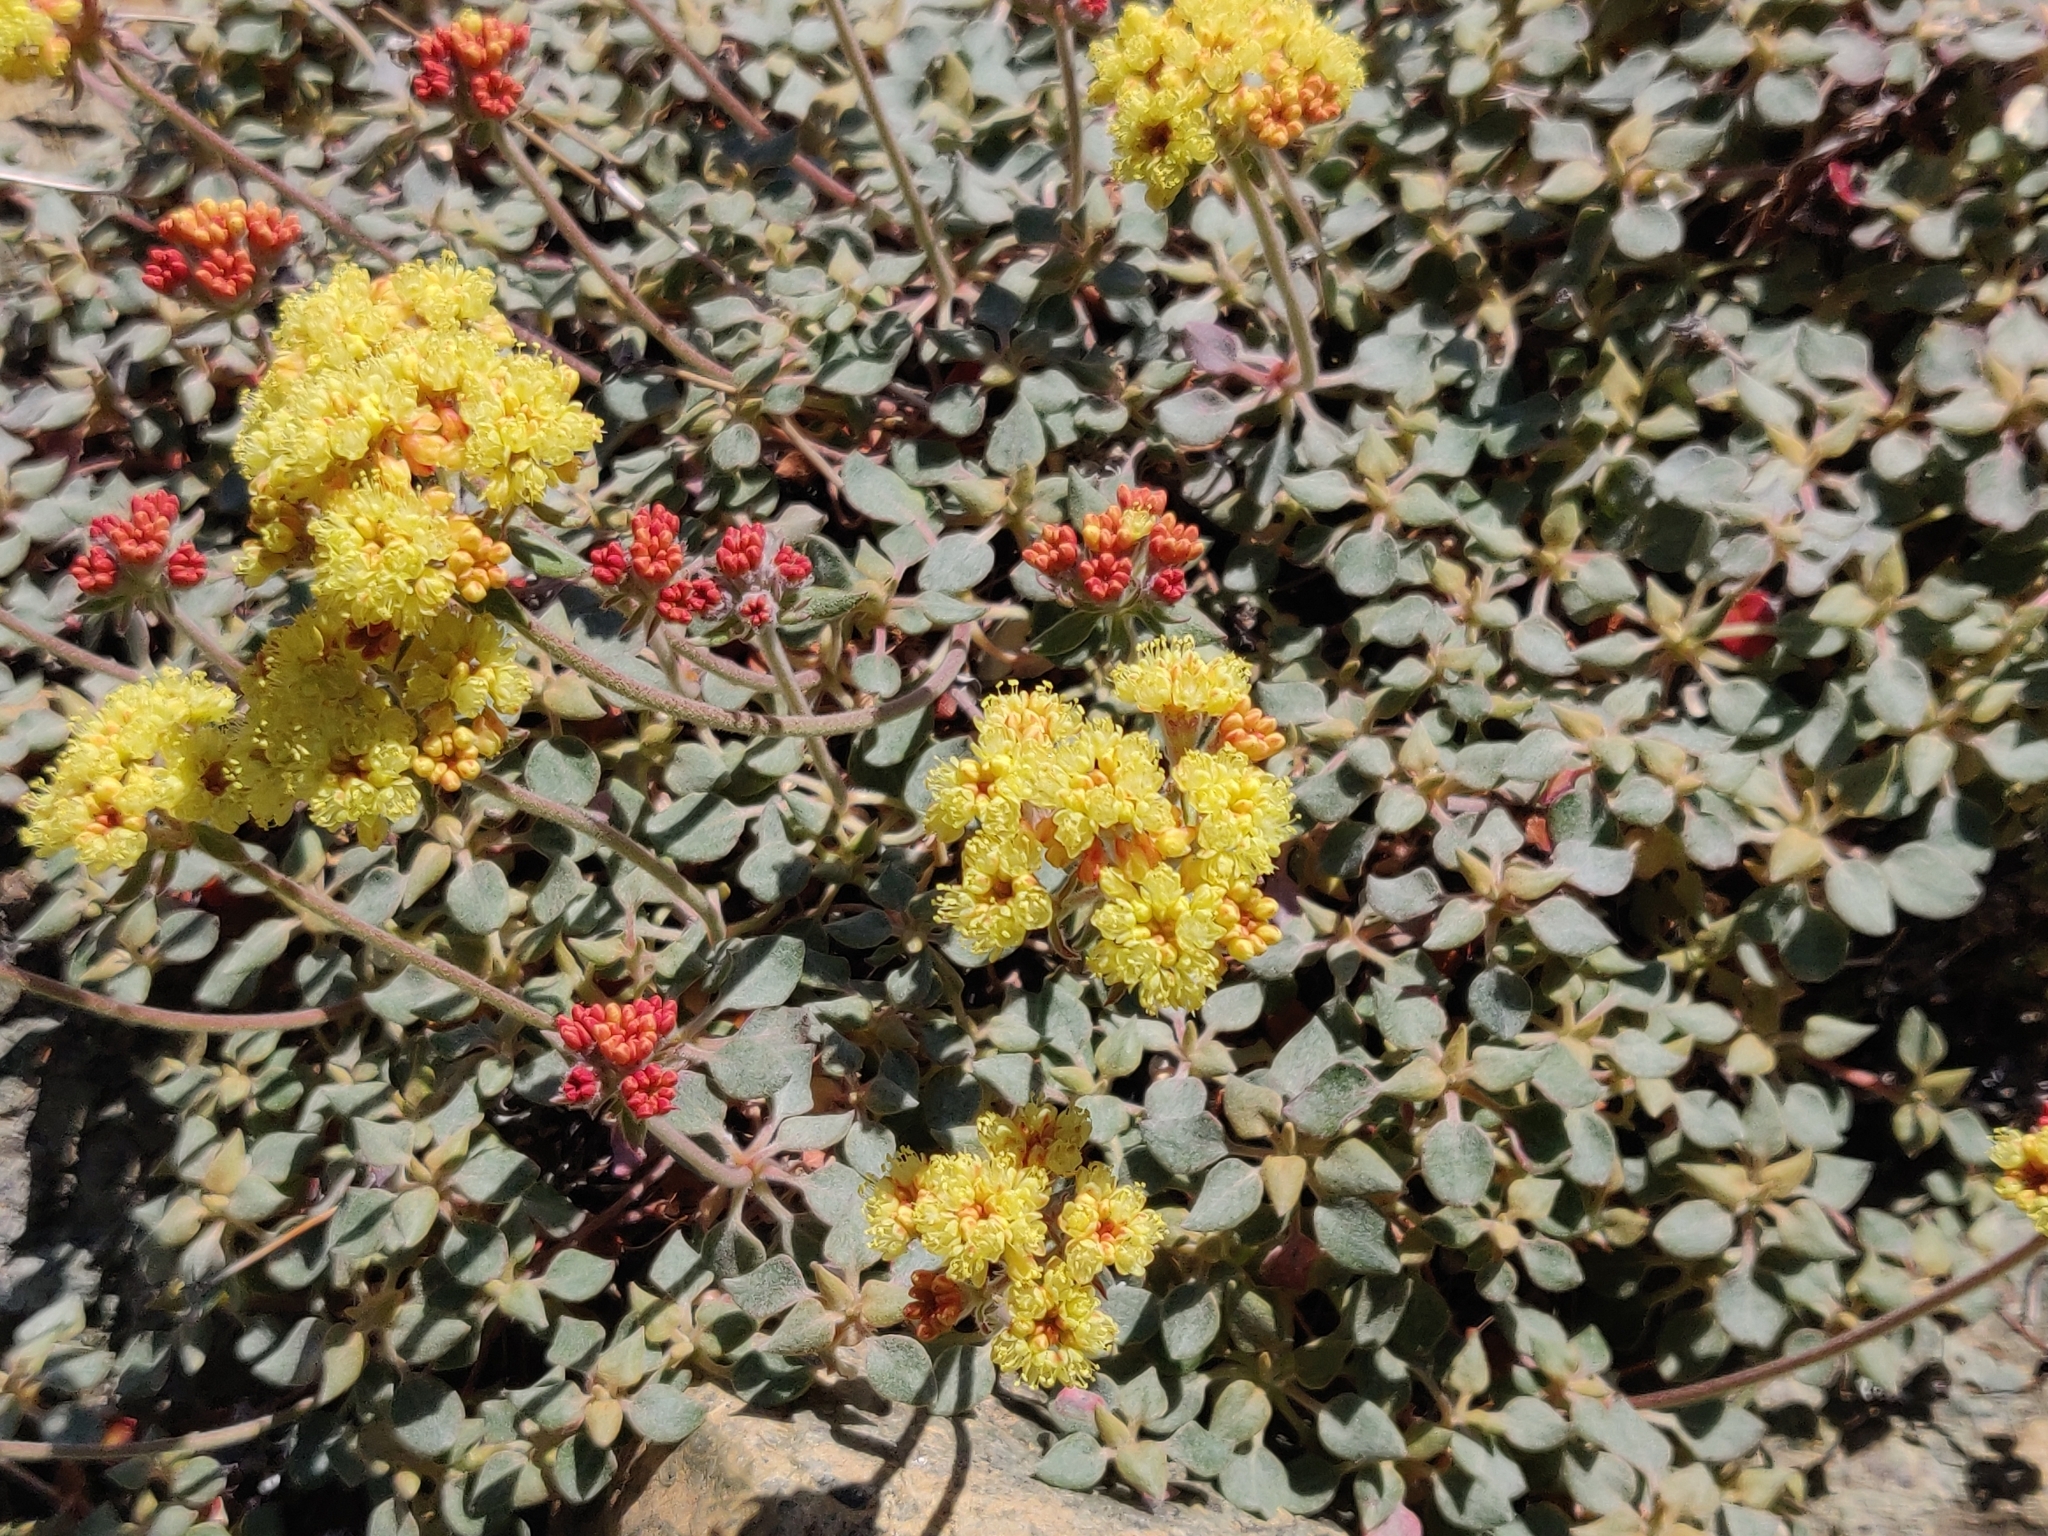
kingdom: Plantae
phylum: Tracheophyta
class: Magnoliopsida
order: Caryophyllales
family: Polygonaceae
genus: Eriogonum
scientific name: Eriogonum cedrorum
